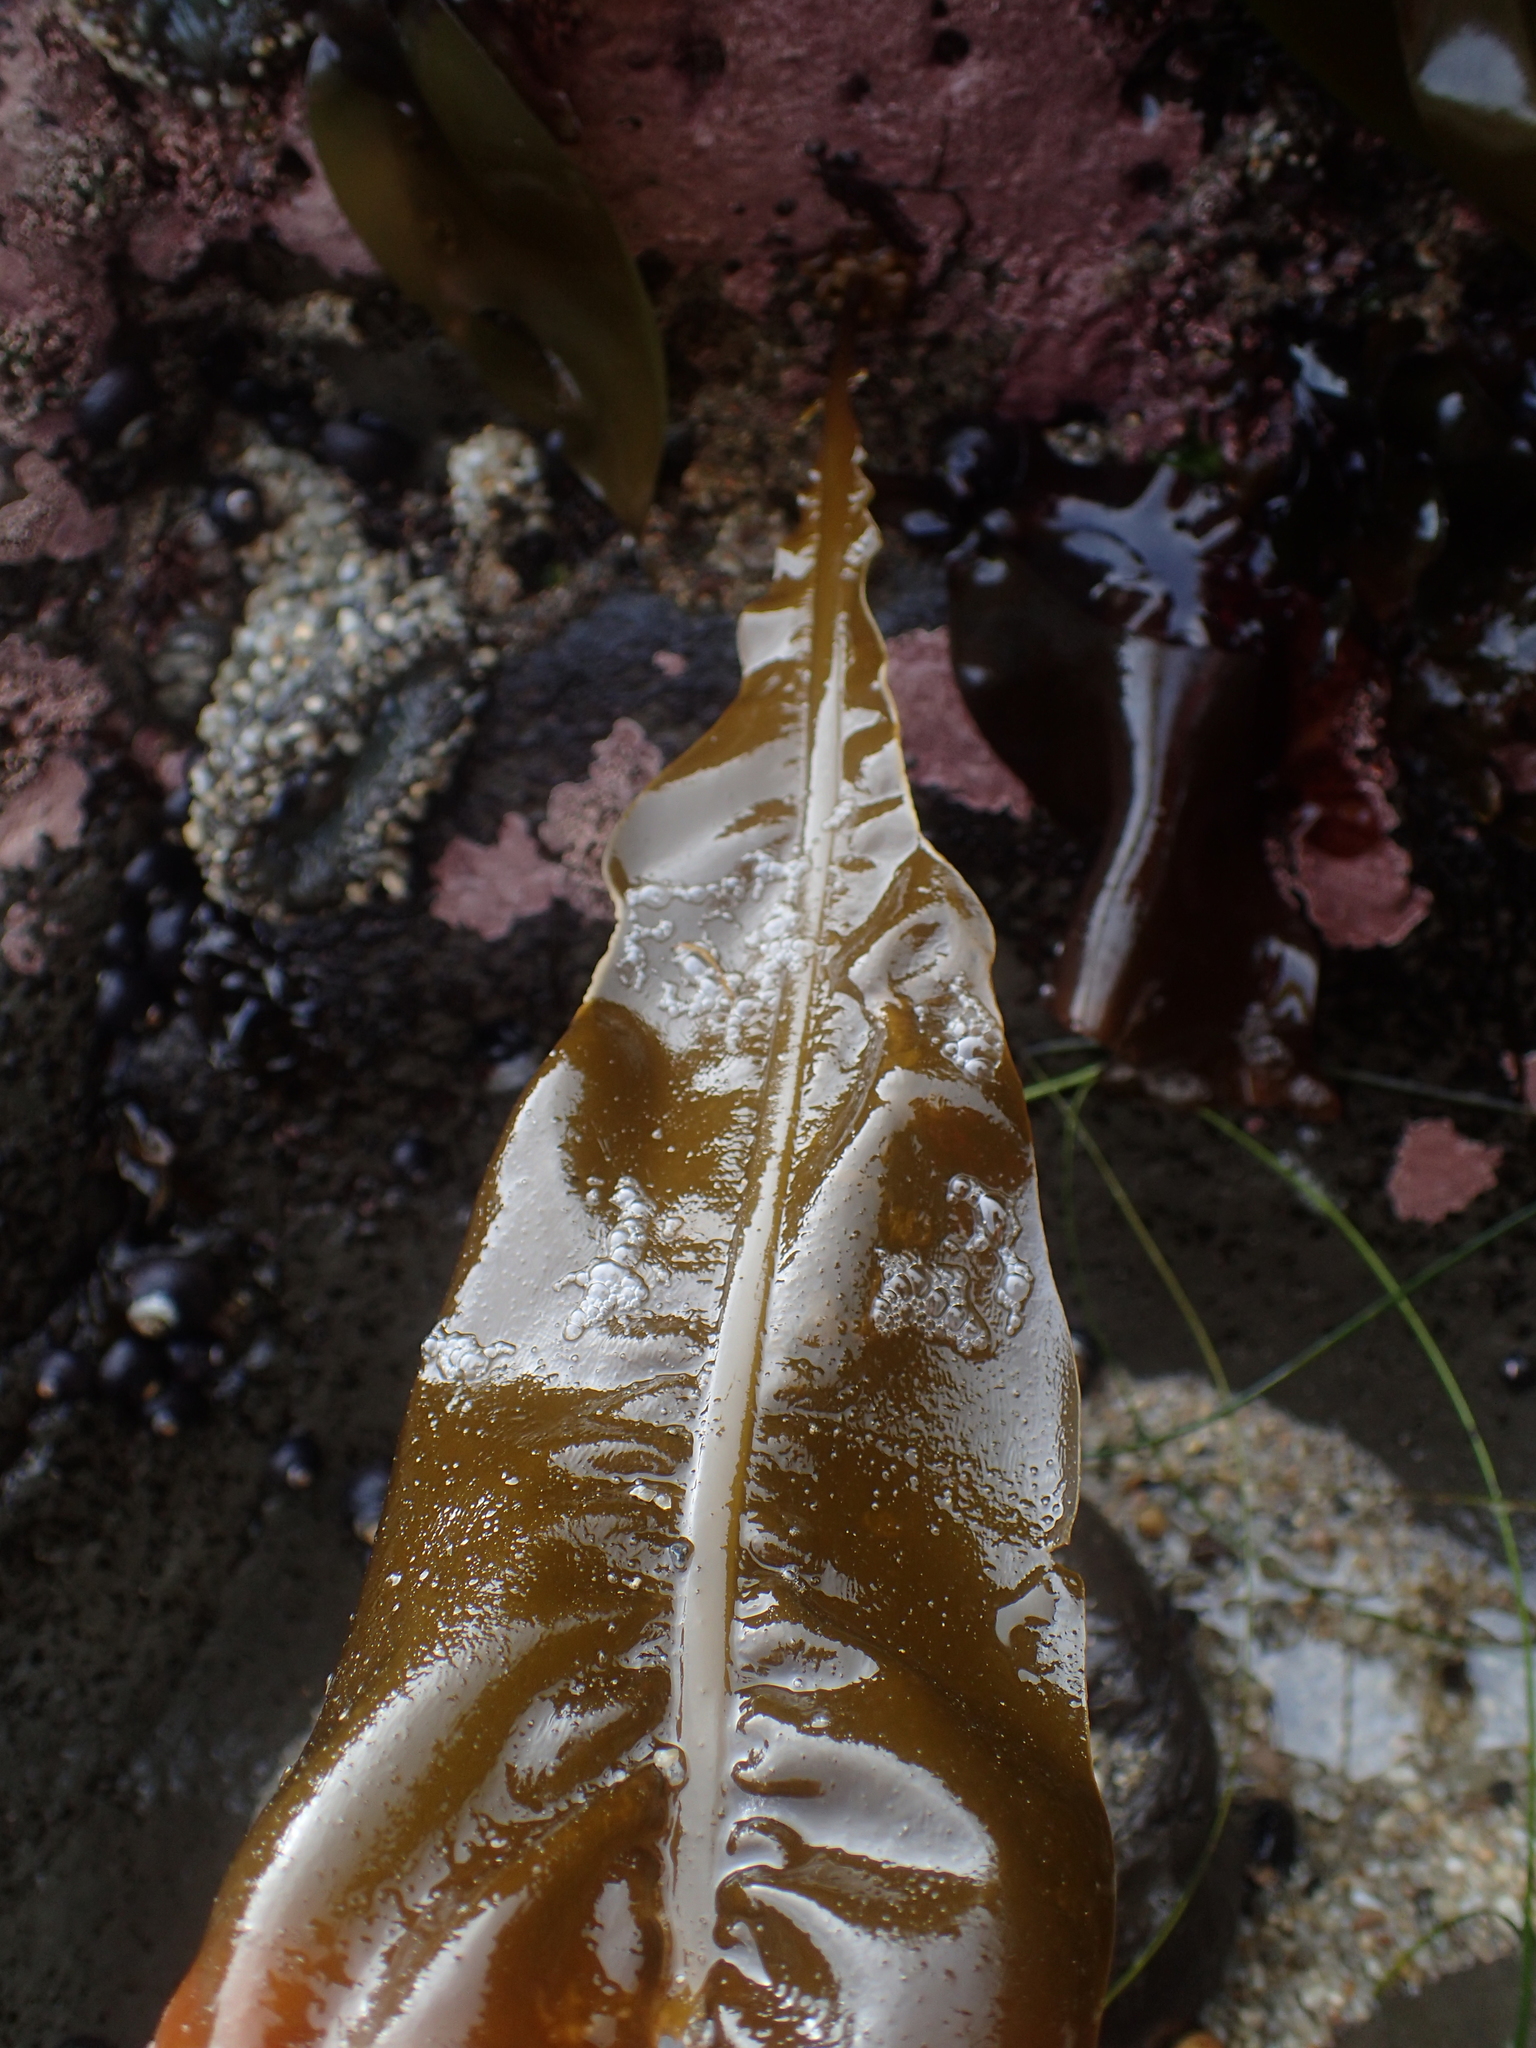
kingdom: Chromista
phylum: Ochrophyta
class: Phaeophyceae
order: Laminariales
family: Alariaceae
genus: Alaria
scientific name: Alaria marginata
